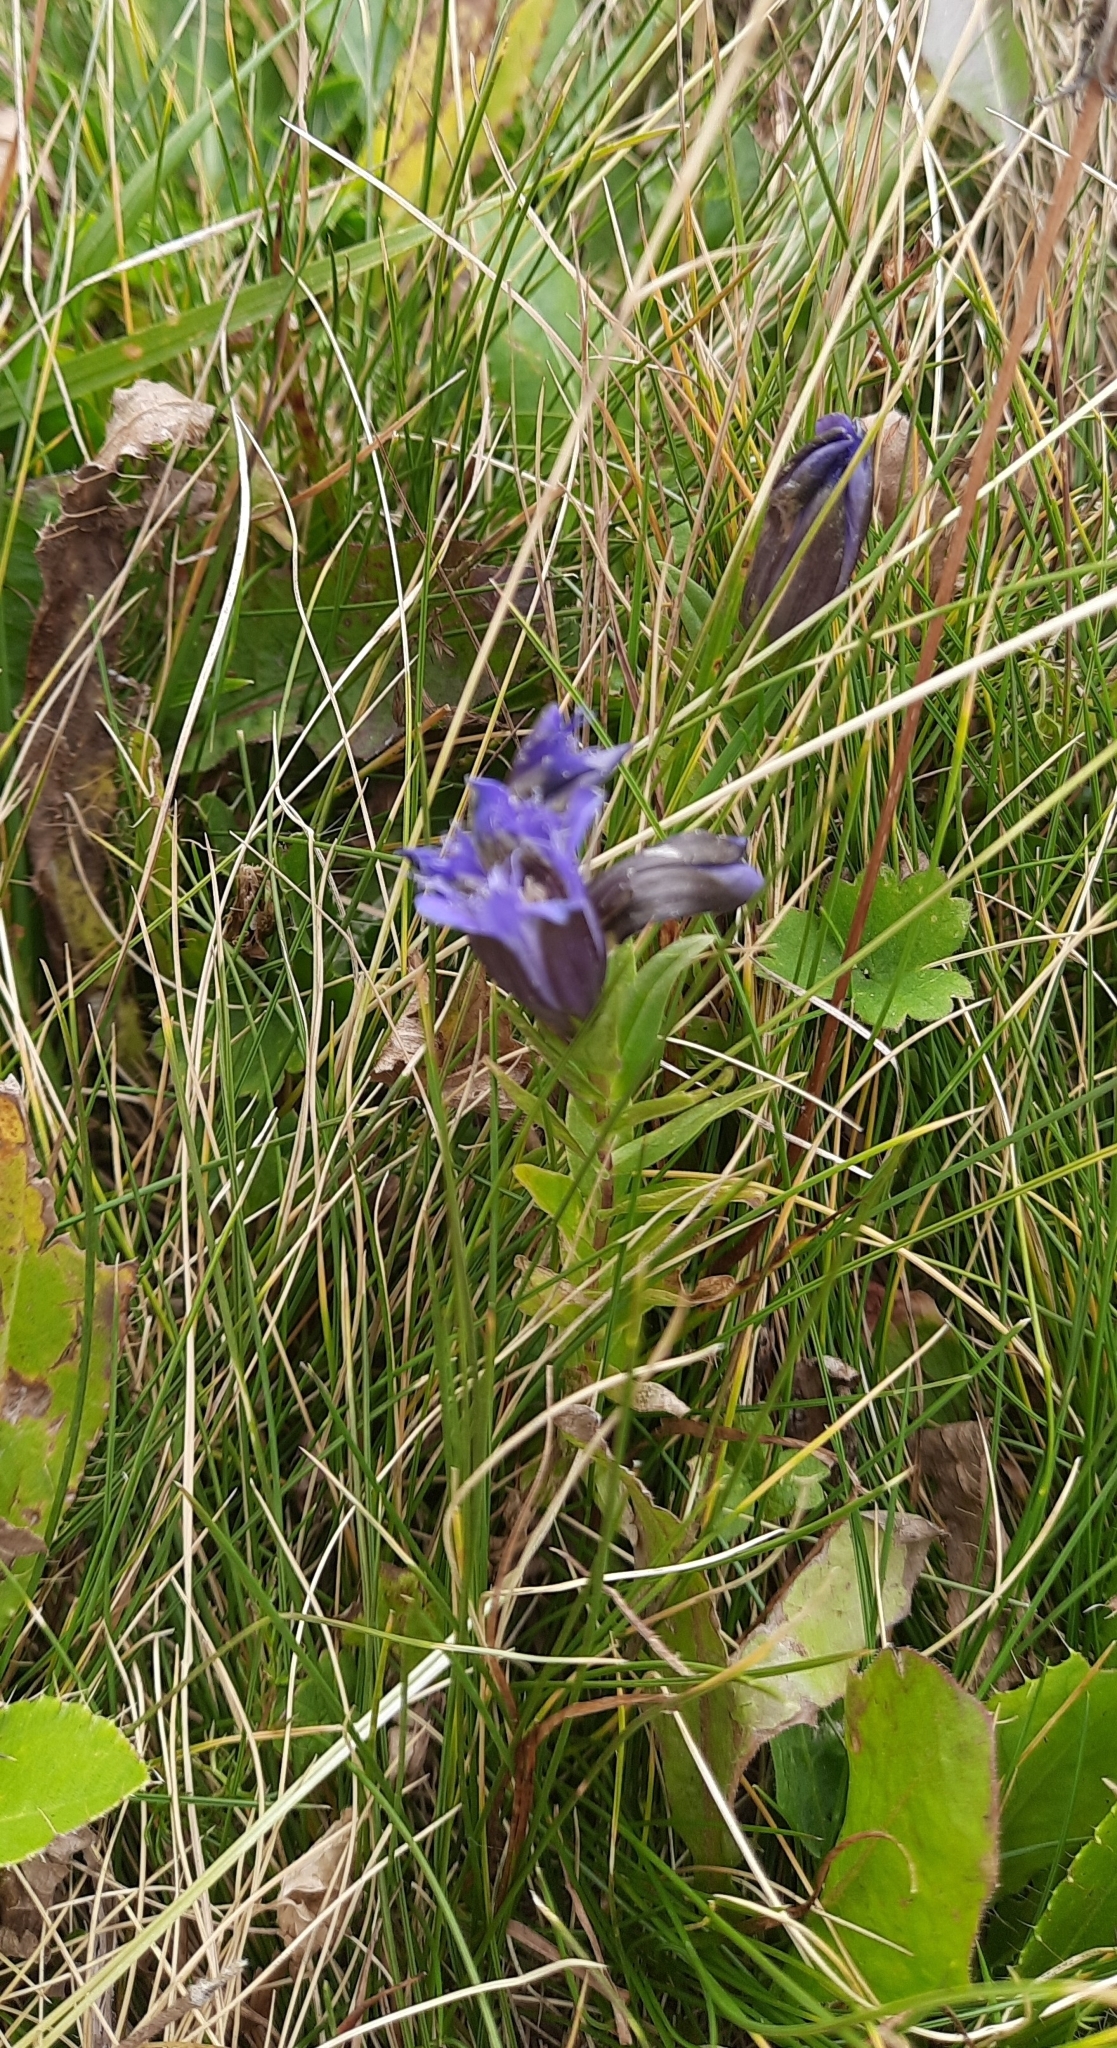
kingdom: Plantae
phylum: Tracheophyta
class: Magnoliopsida
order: Gentianales
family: Gentianaceae
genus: Gentiana
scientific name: Gentiana septemfida
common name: Crested gentian
